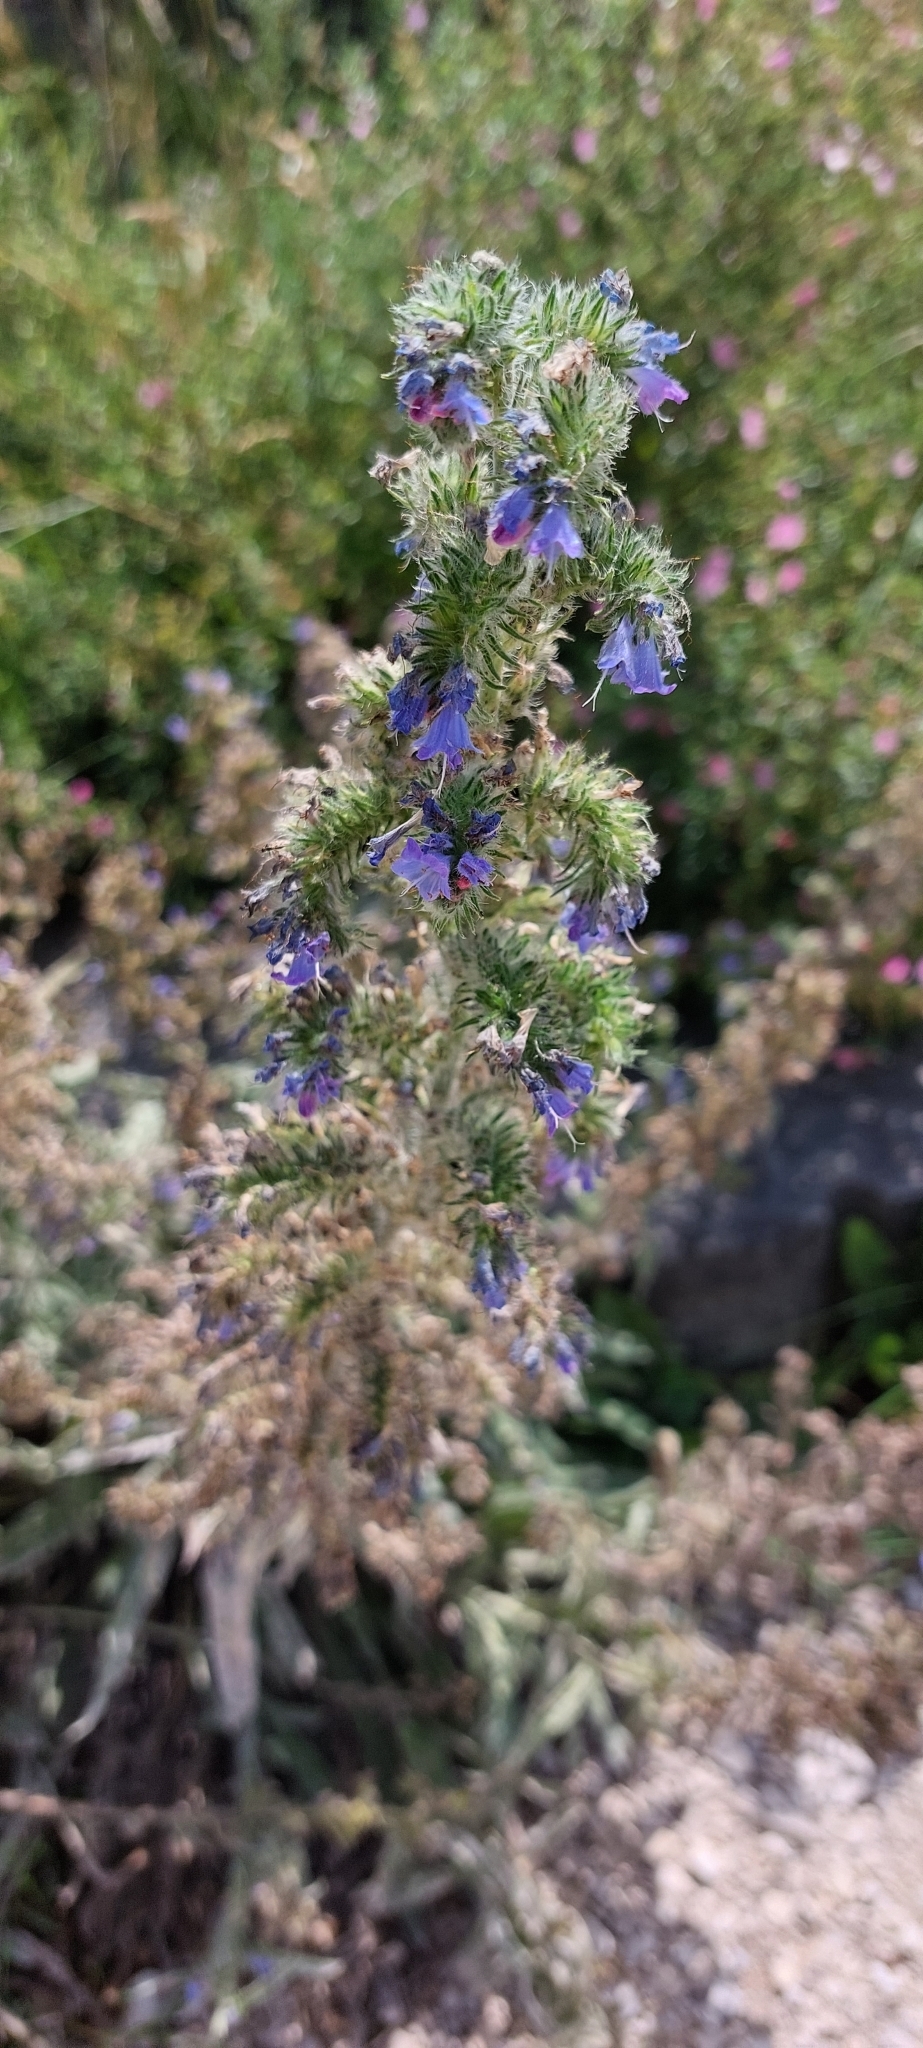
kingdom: Plantae
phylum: Tracheophyta
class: Magnoliopsida
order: Boraginales
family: Boraginaceae
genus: Echium
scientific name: Echium vulgare
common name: Common viper's bugloss
